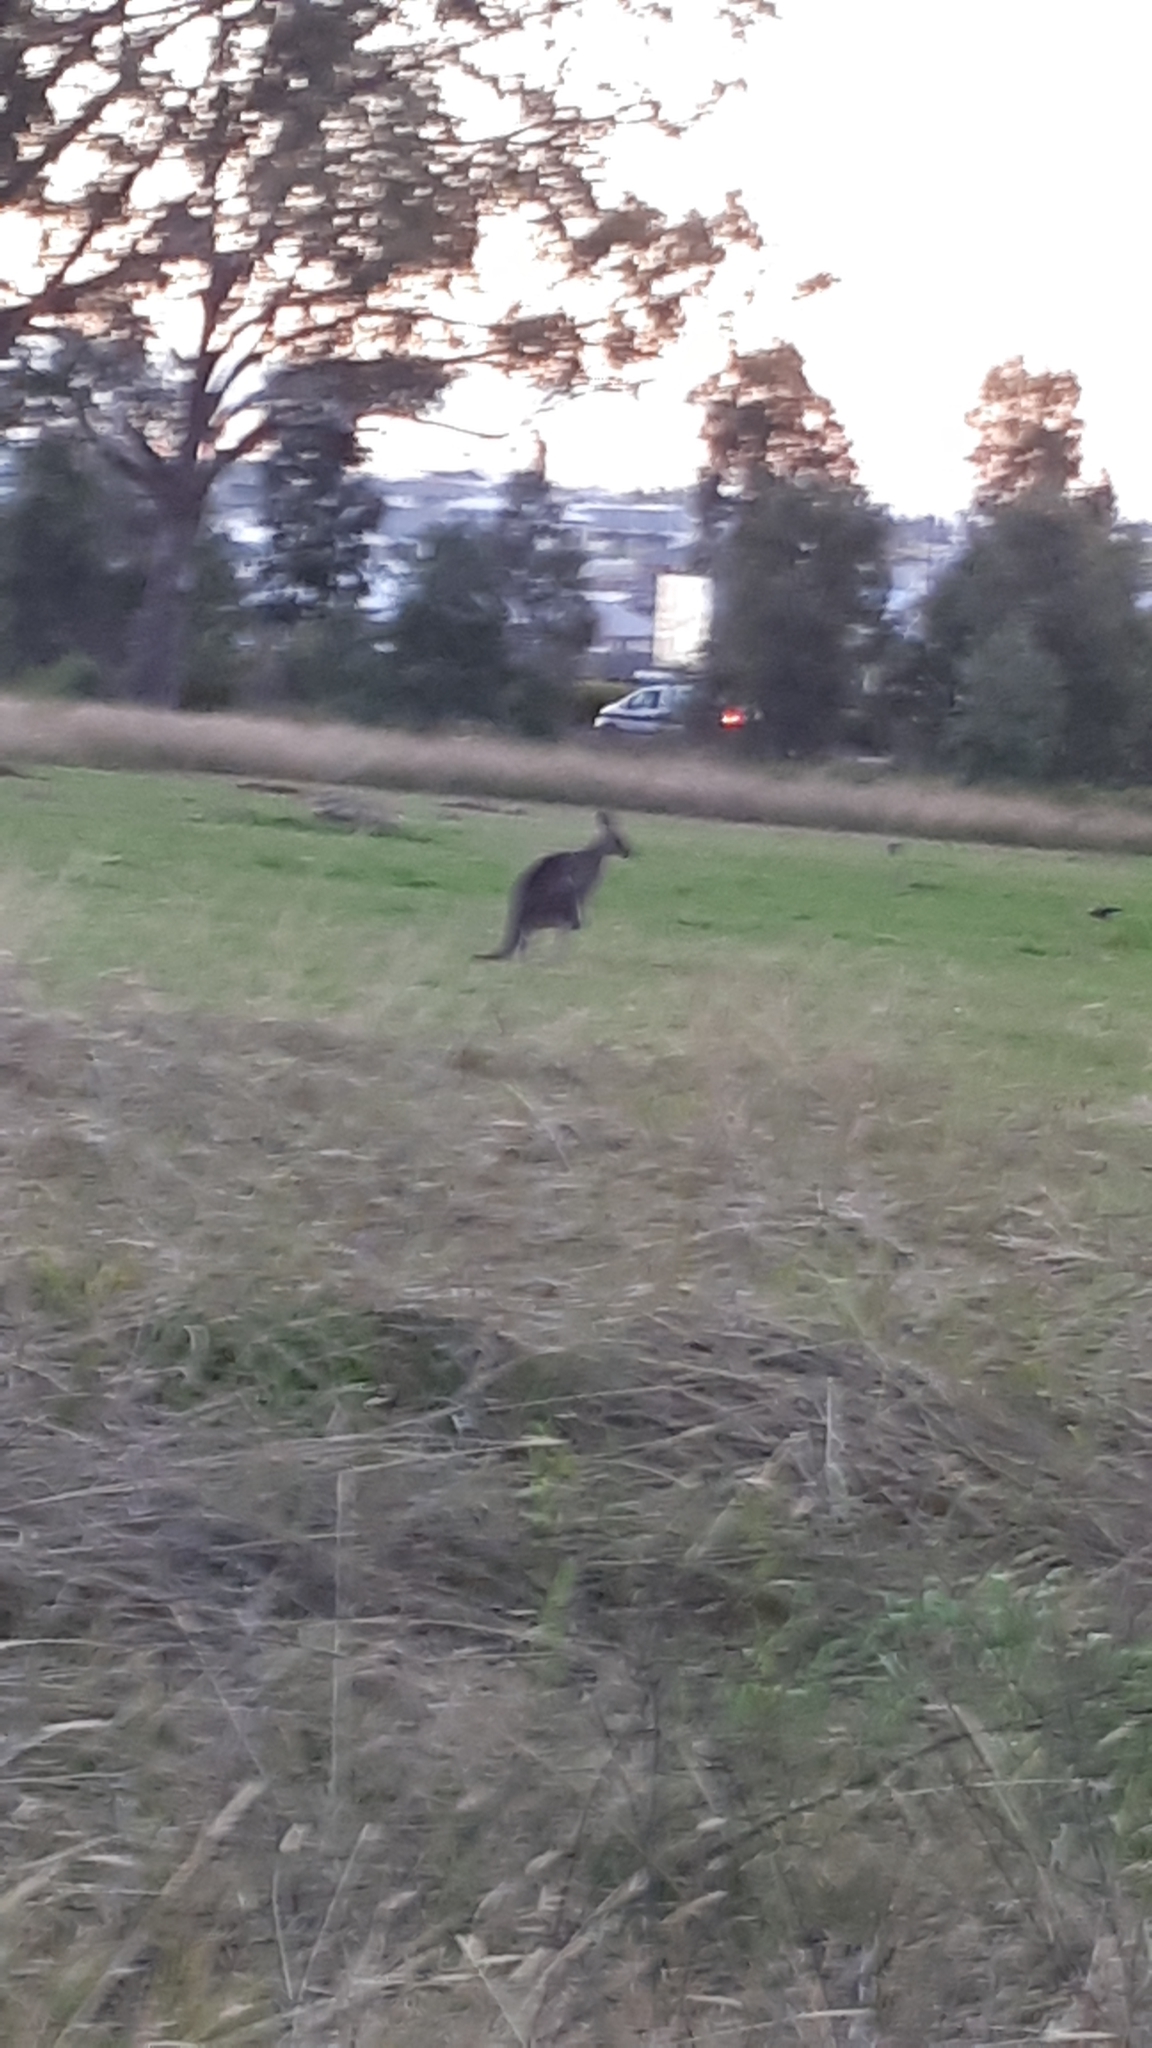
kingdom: Animalia
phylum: Chordata
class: Mammalia
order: Diprotodontia
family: Macropodidae
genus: Macropus
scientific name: Macropus giganteus
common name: Eastern grey kangaroo
